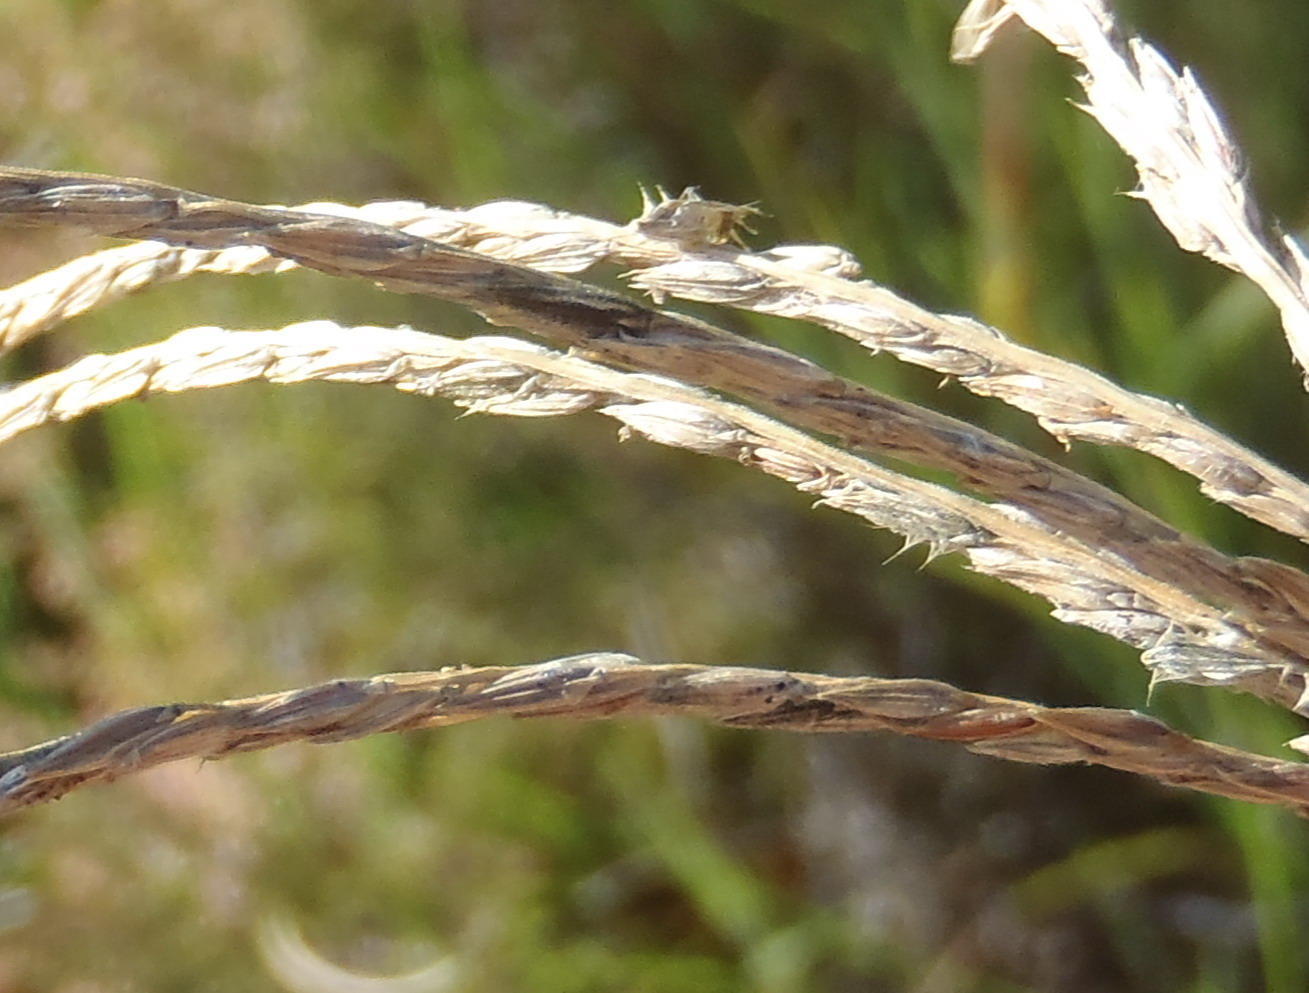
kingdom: Plantae
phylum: Tracheophyta
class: Liliopsida
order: Poales
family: Poaceae
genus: Digitaria
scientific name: Digitaria eriantha
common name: Digitgrass
